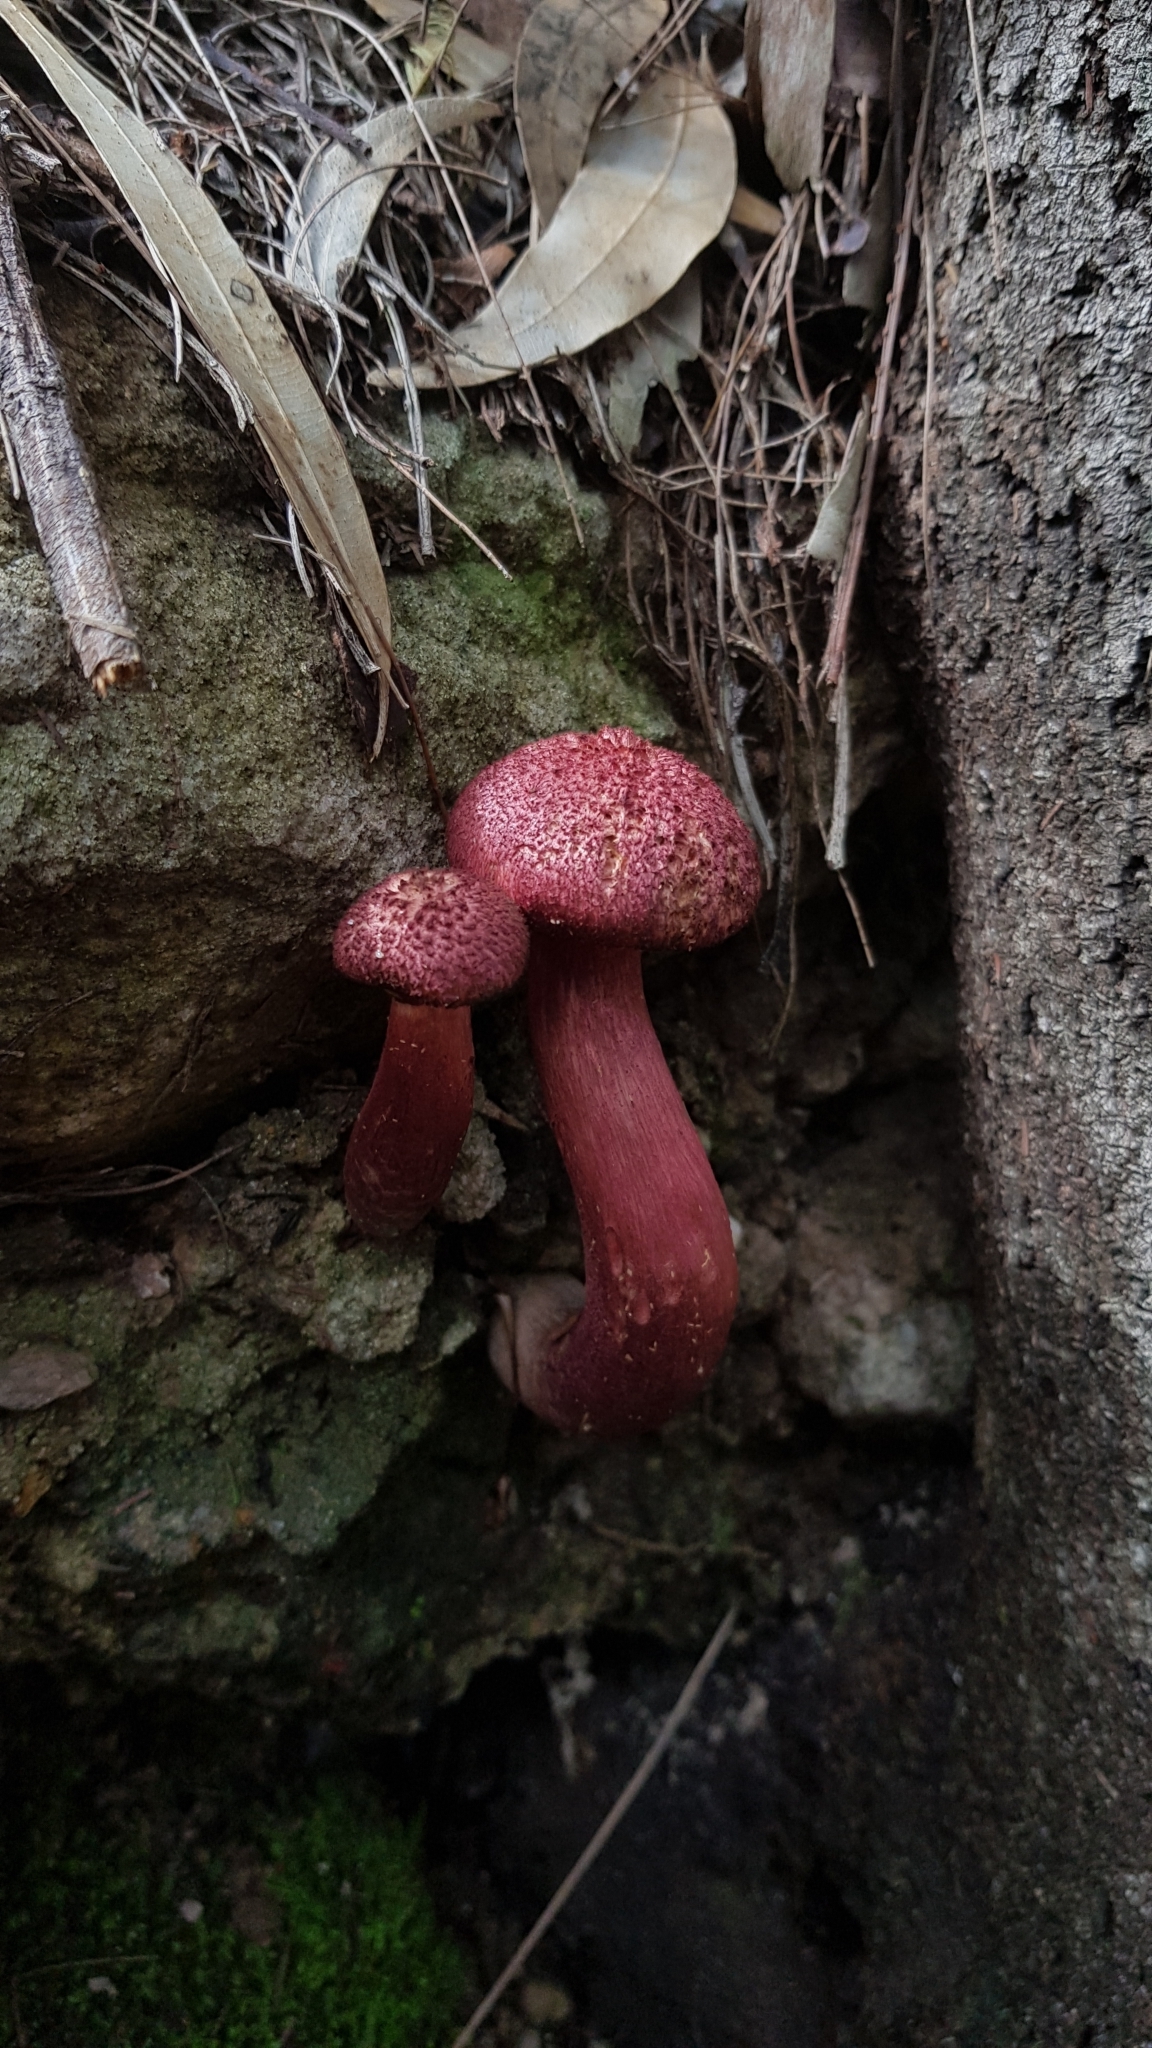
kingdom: Fungi
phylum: Basidiomycota
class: Agaricomycetes
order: Boletales
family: Boletaceae
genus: Boletellus
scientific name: Boletellus emodensis
